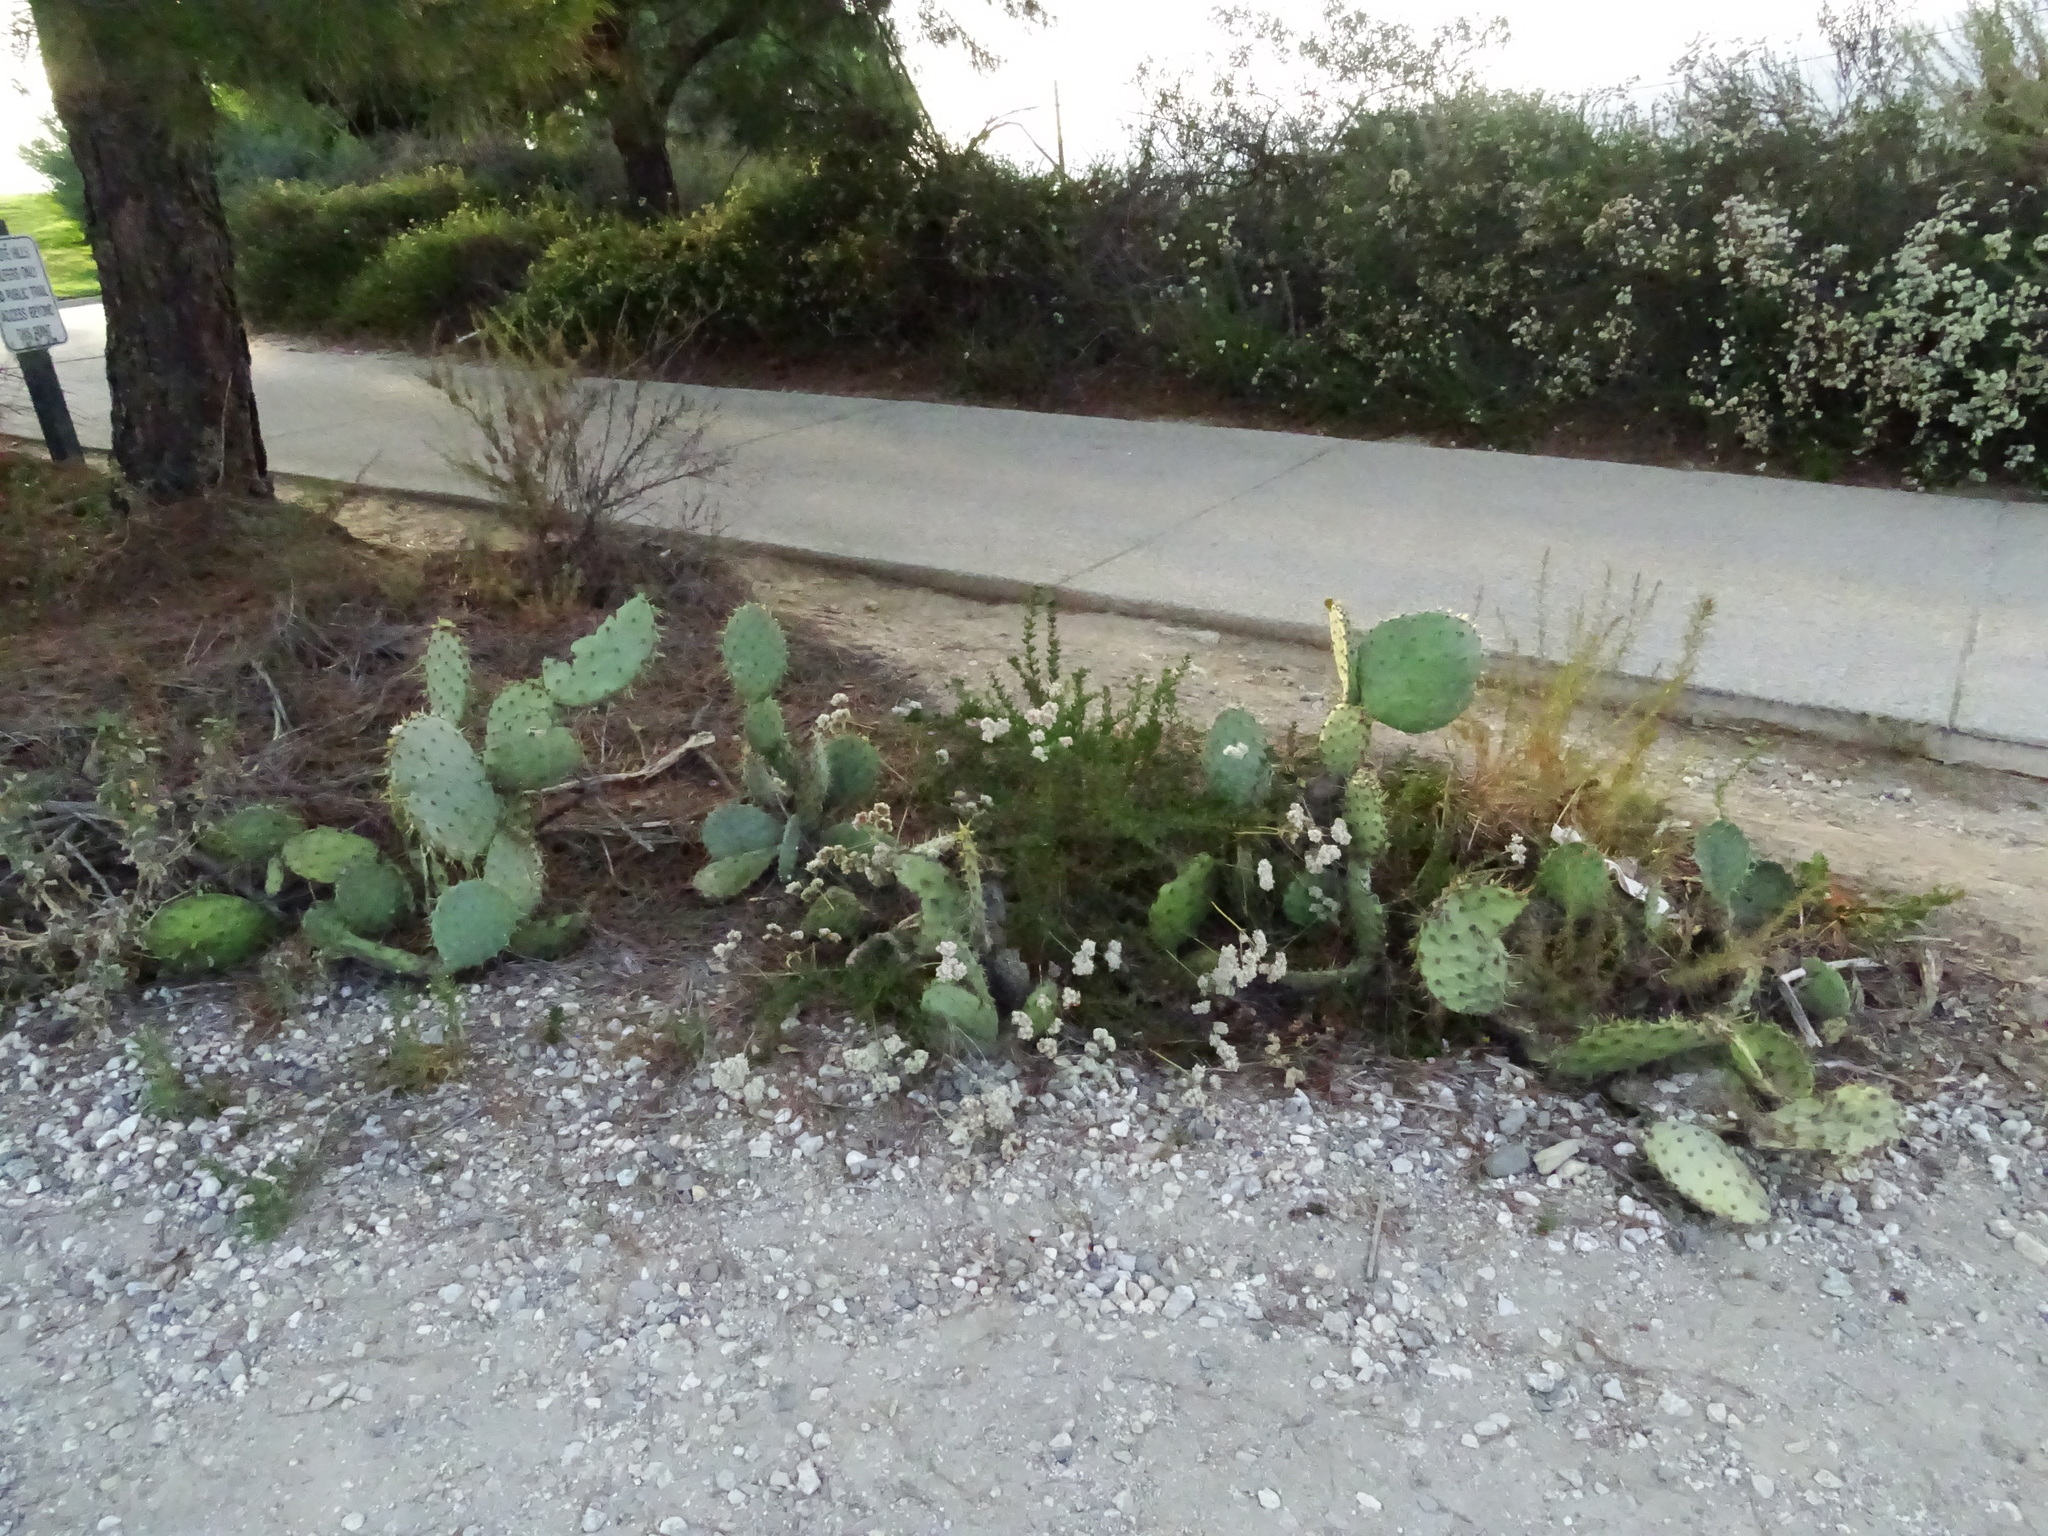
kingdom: Plantae
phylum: Tracheophyta
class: Magnoliopsida
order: Caryophyllales
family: Cactaceae
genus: Opuntia
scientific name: Opuntia littoralis
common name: Coastal prickly-pear
